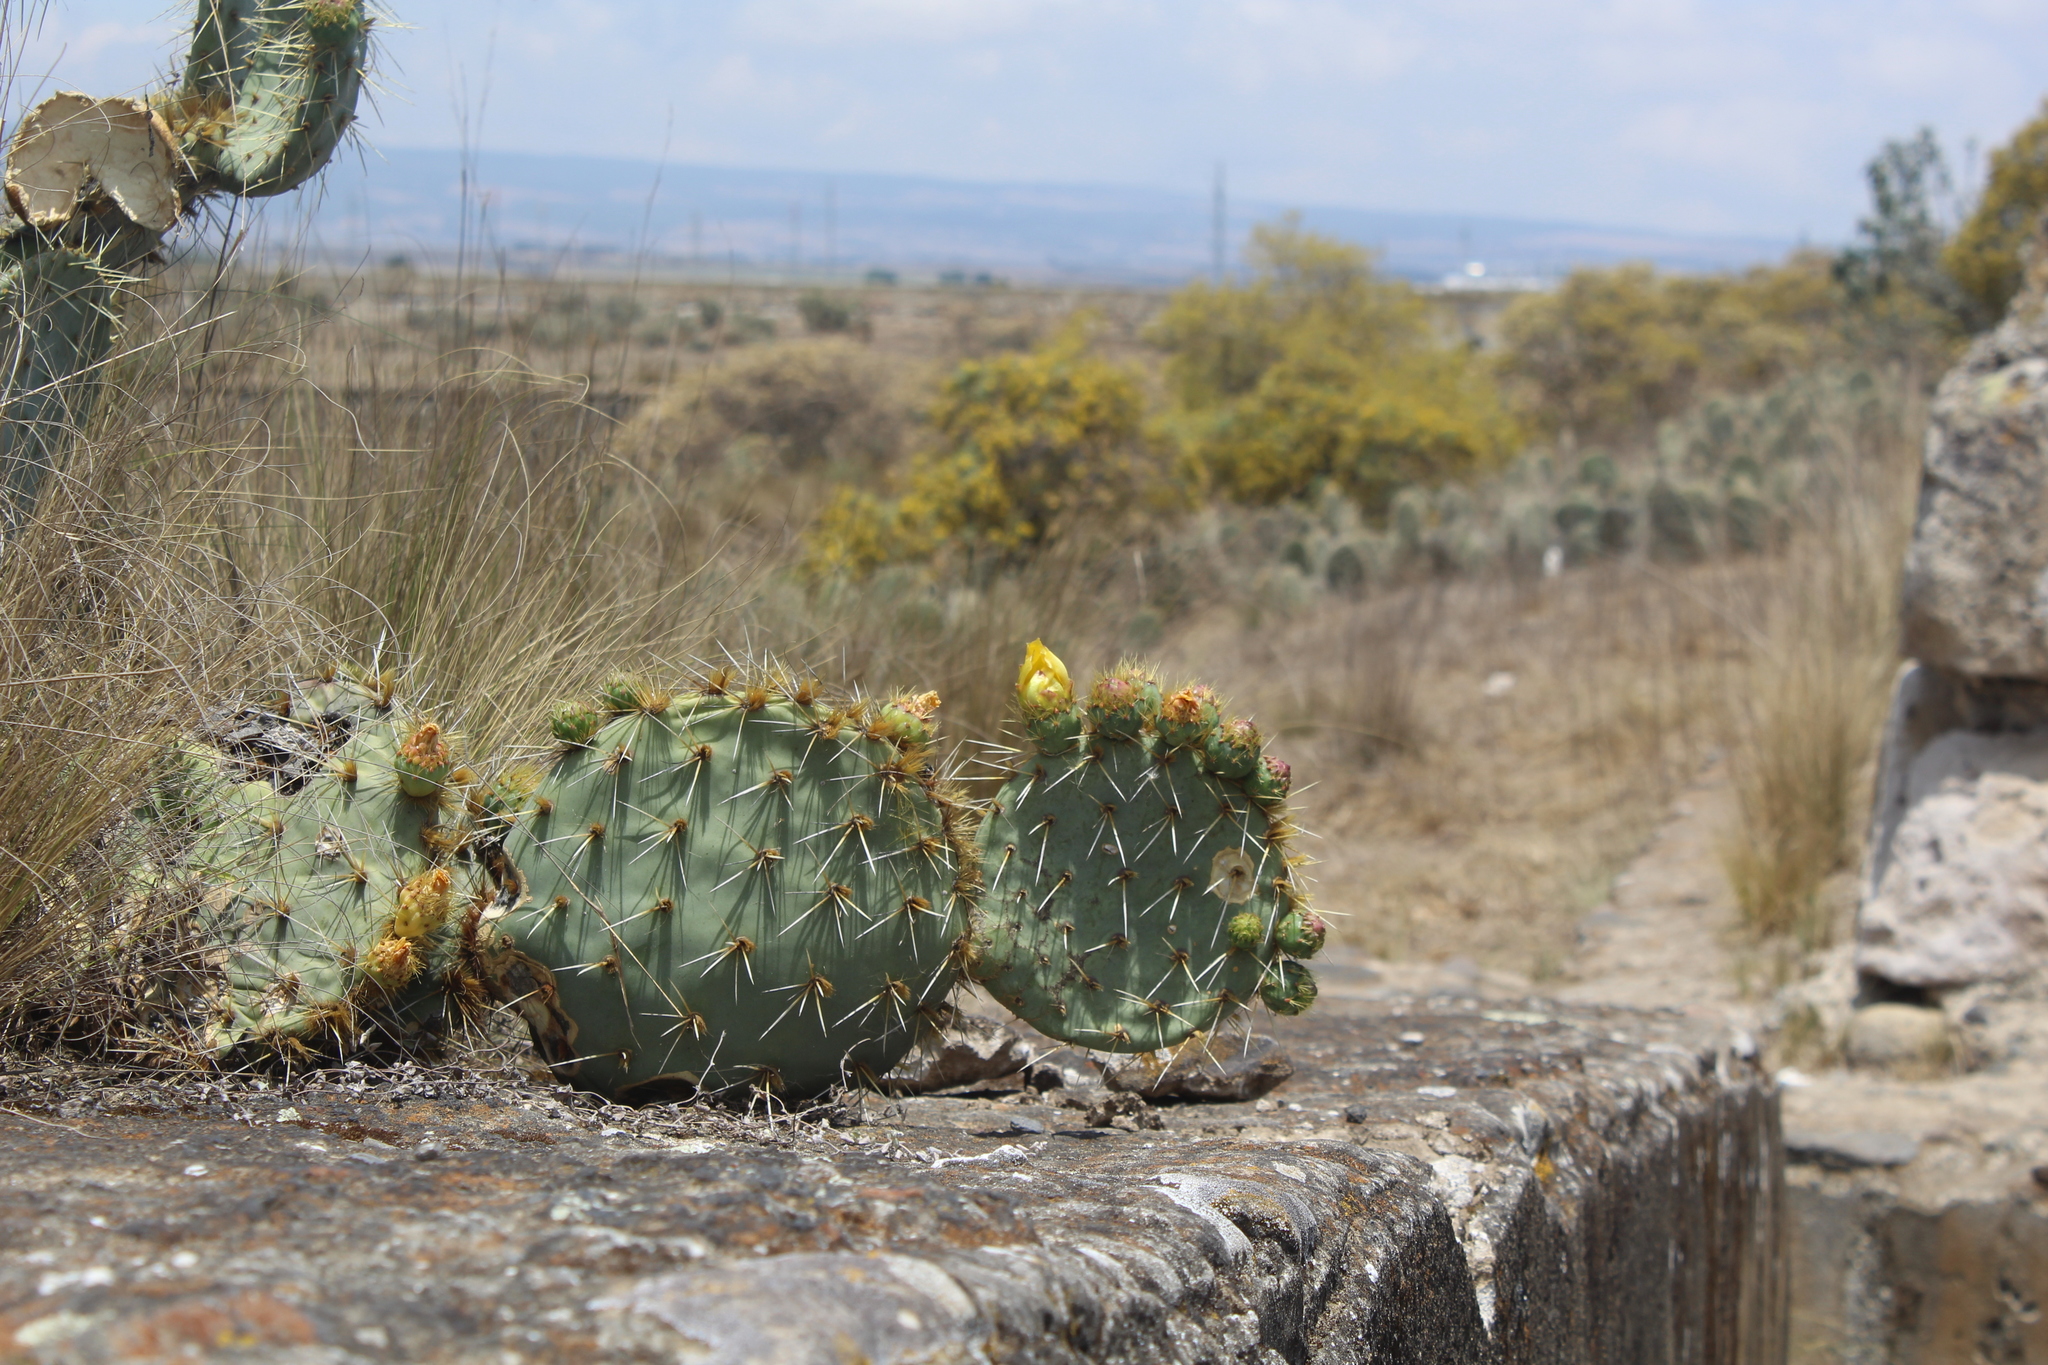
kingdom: Plantae
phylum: Tracheophyta
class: Magnoliopsida
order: Caryophyllales
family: Cactaceae
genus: Opuntia
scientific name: Opuntia perotensis
